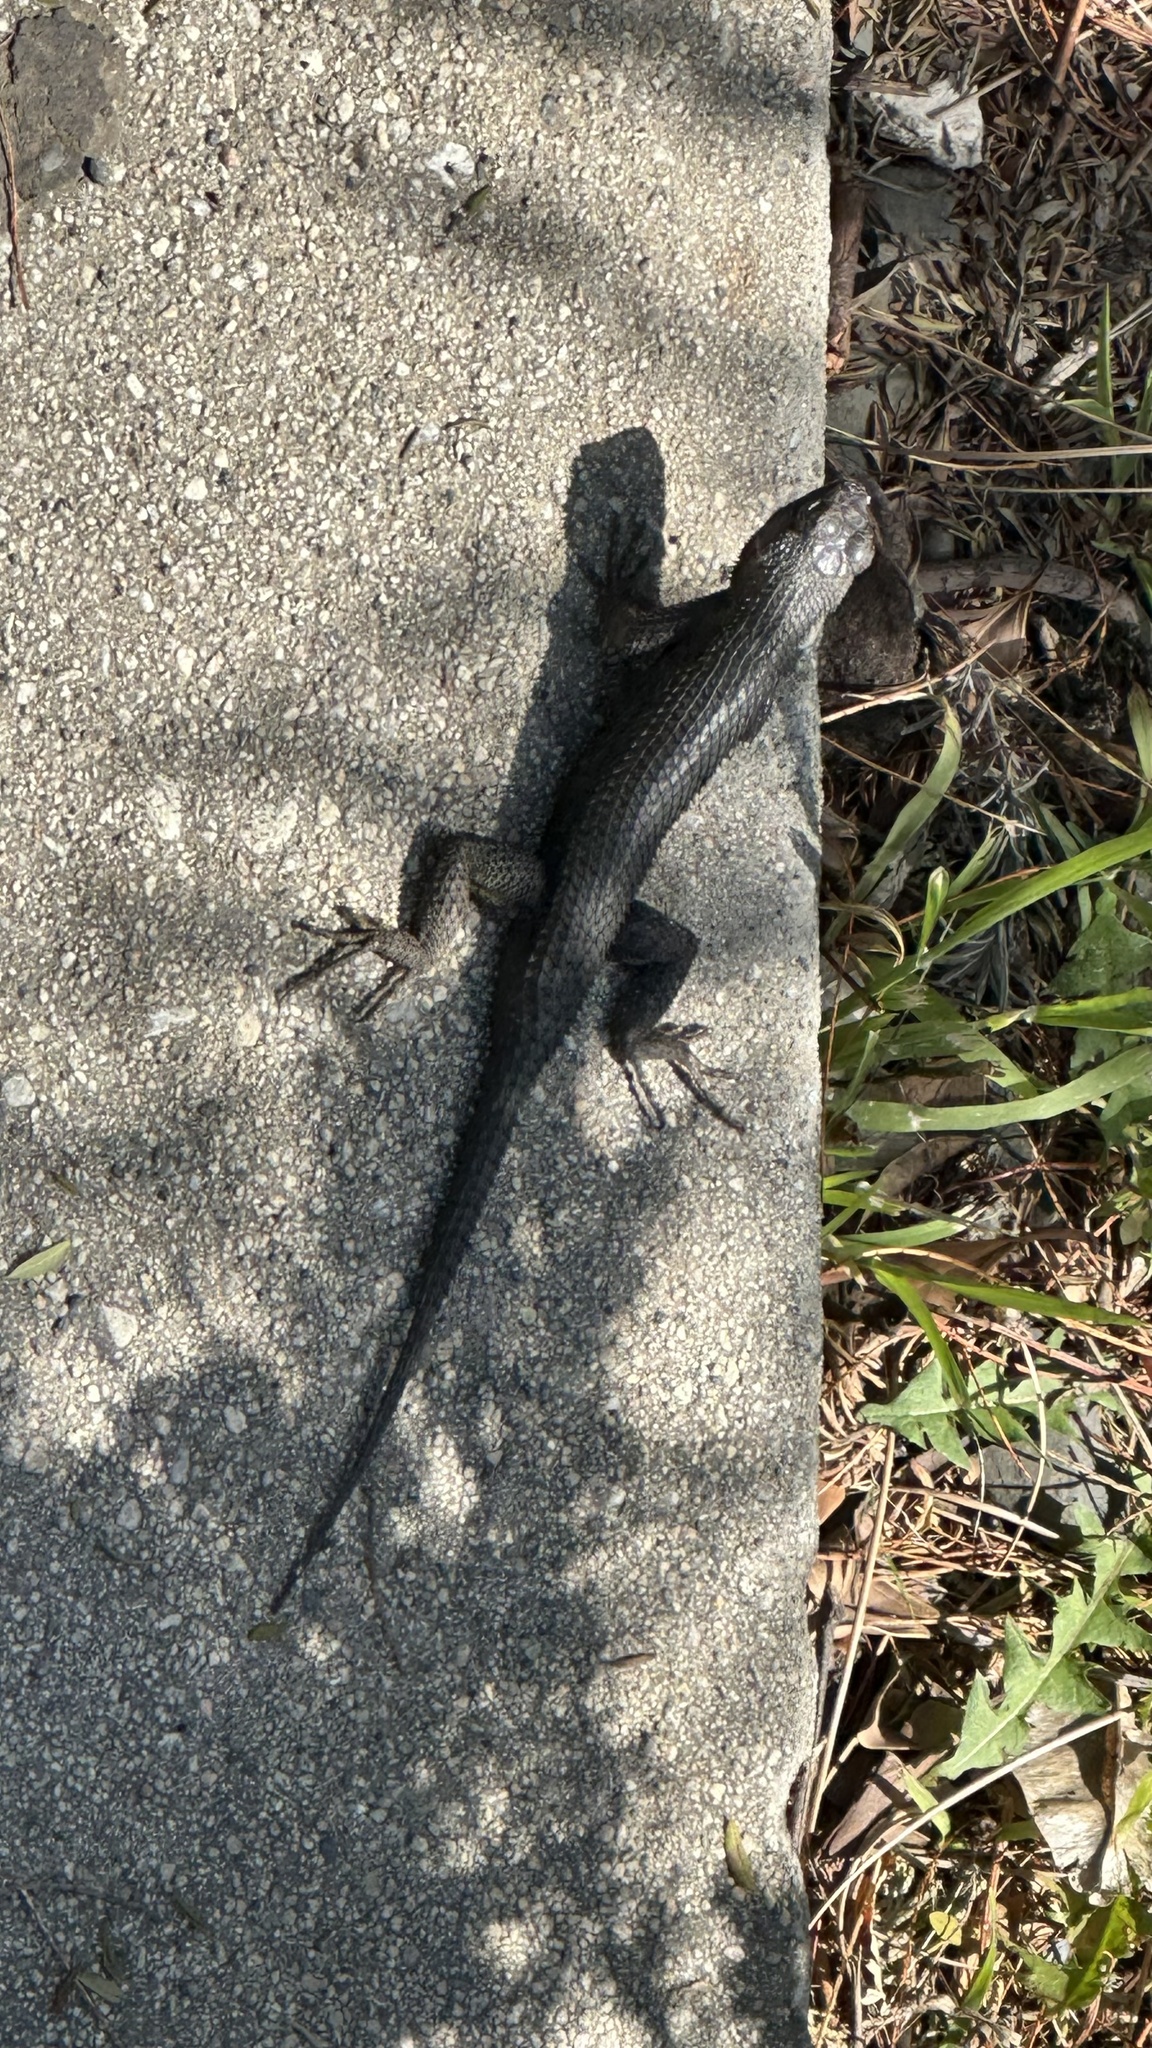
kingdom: Animalia
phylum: Chordata
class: Squamata
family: Phrynosomatidae
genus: Sceloporus
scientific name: Sceloporus occidentalis
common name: Western fence lizard
